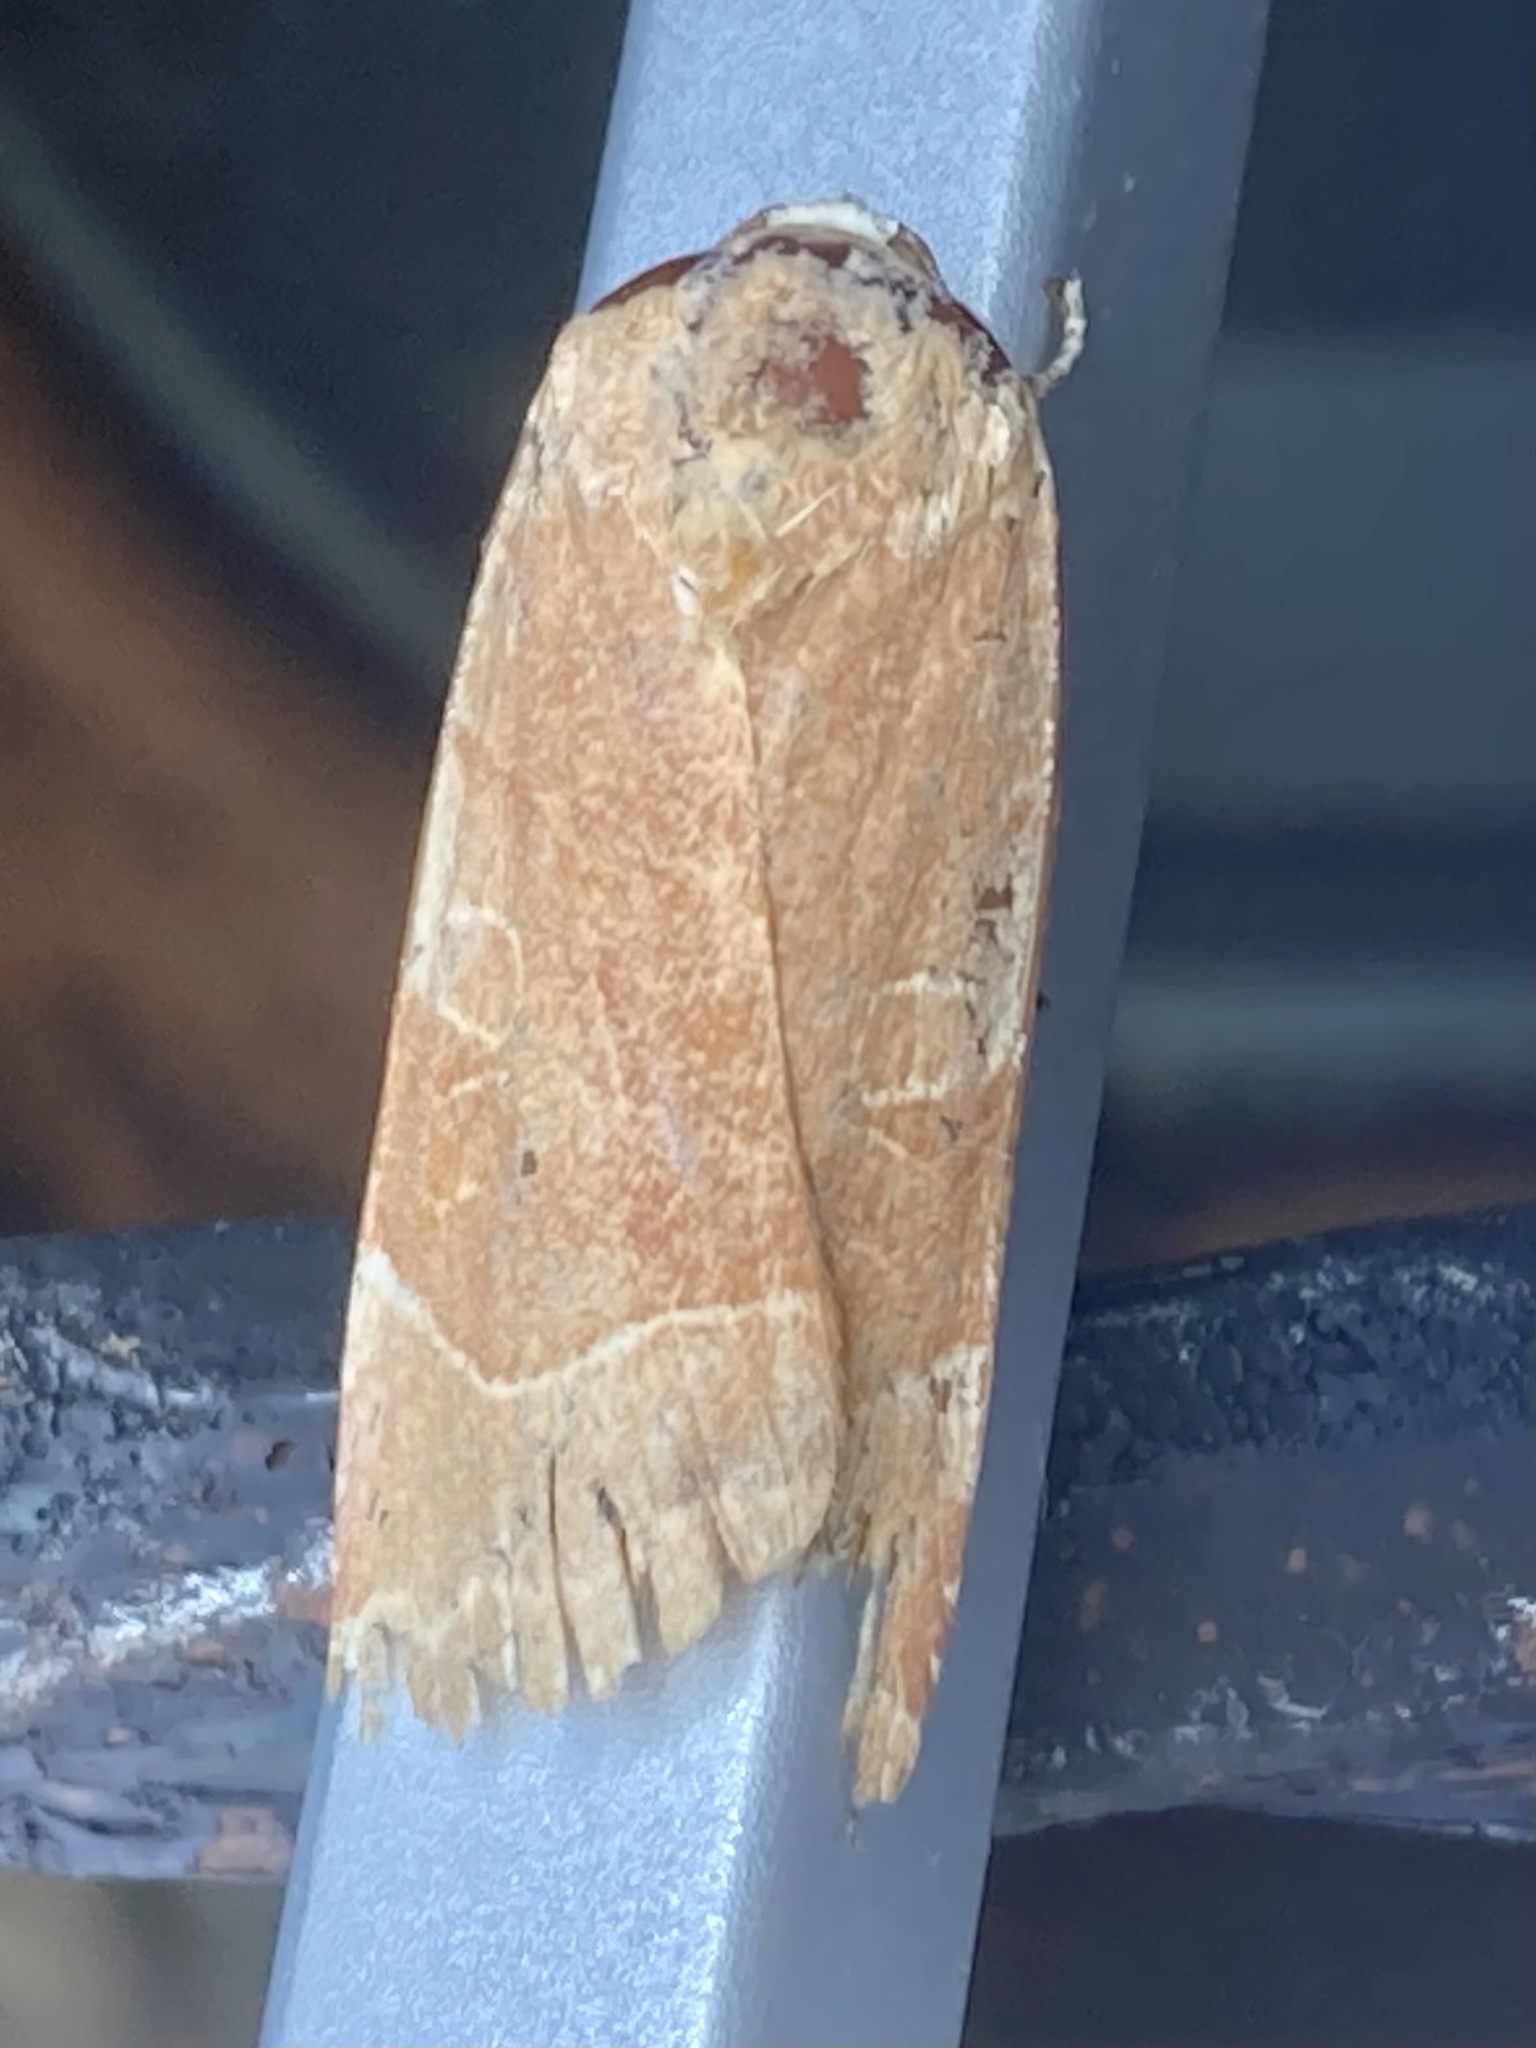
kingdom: Animalia
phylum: Arthropoda
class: Insecta
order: Lepidoptera
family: Noctuidae
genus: Noctua
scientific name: Noctua fimbriata
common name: Broad-bordered yellow underwing
